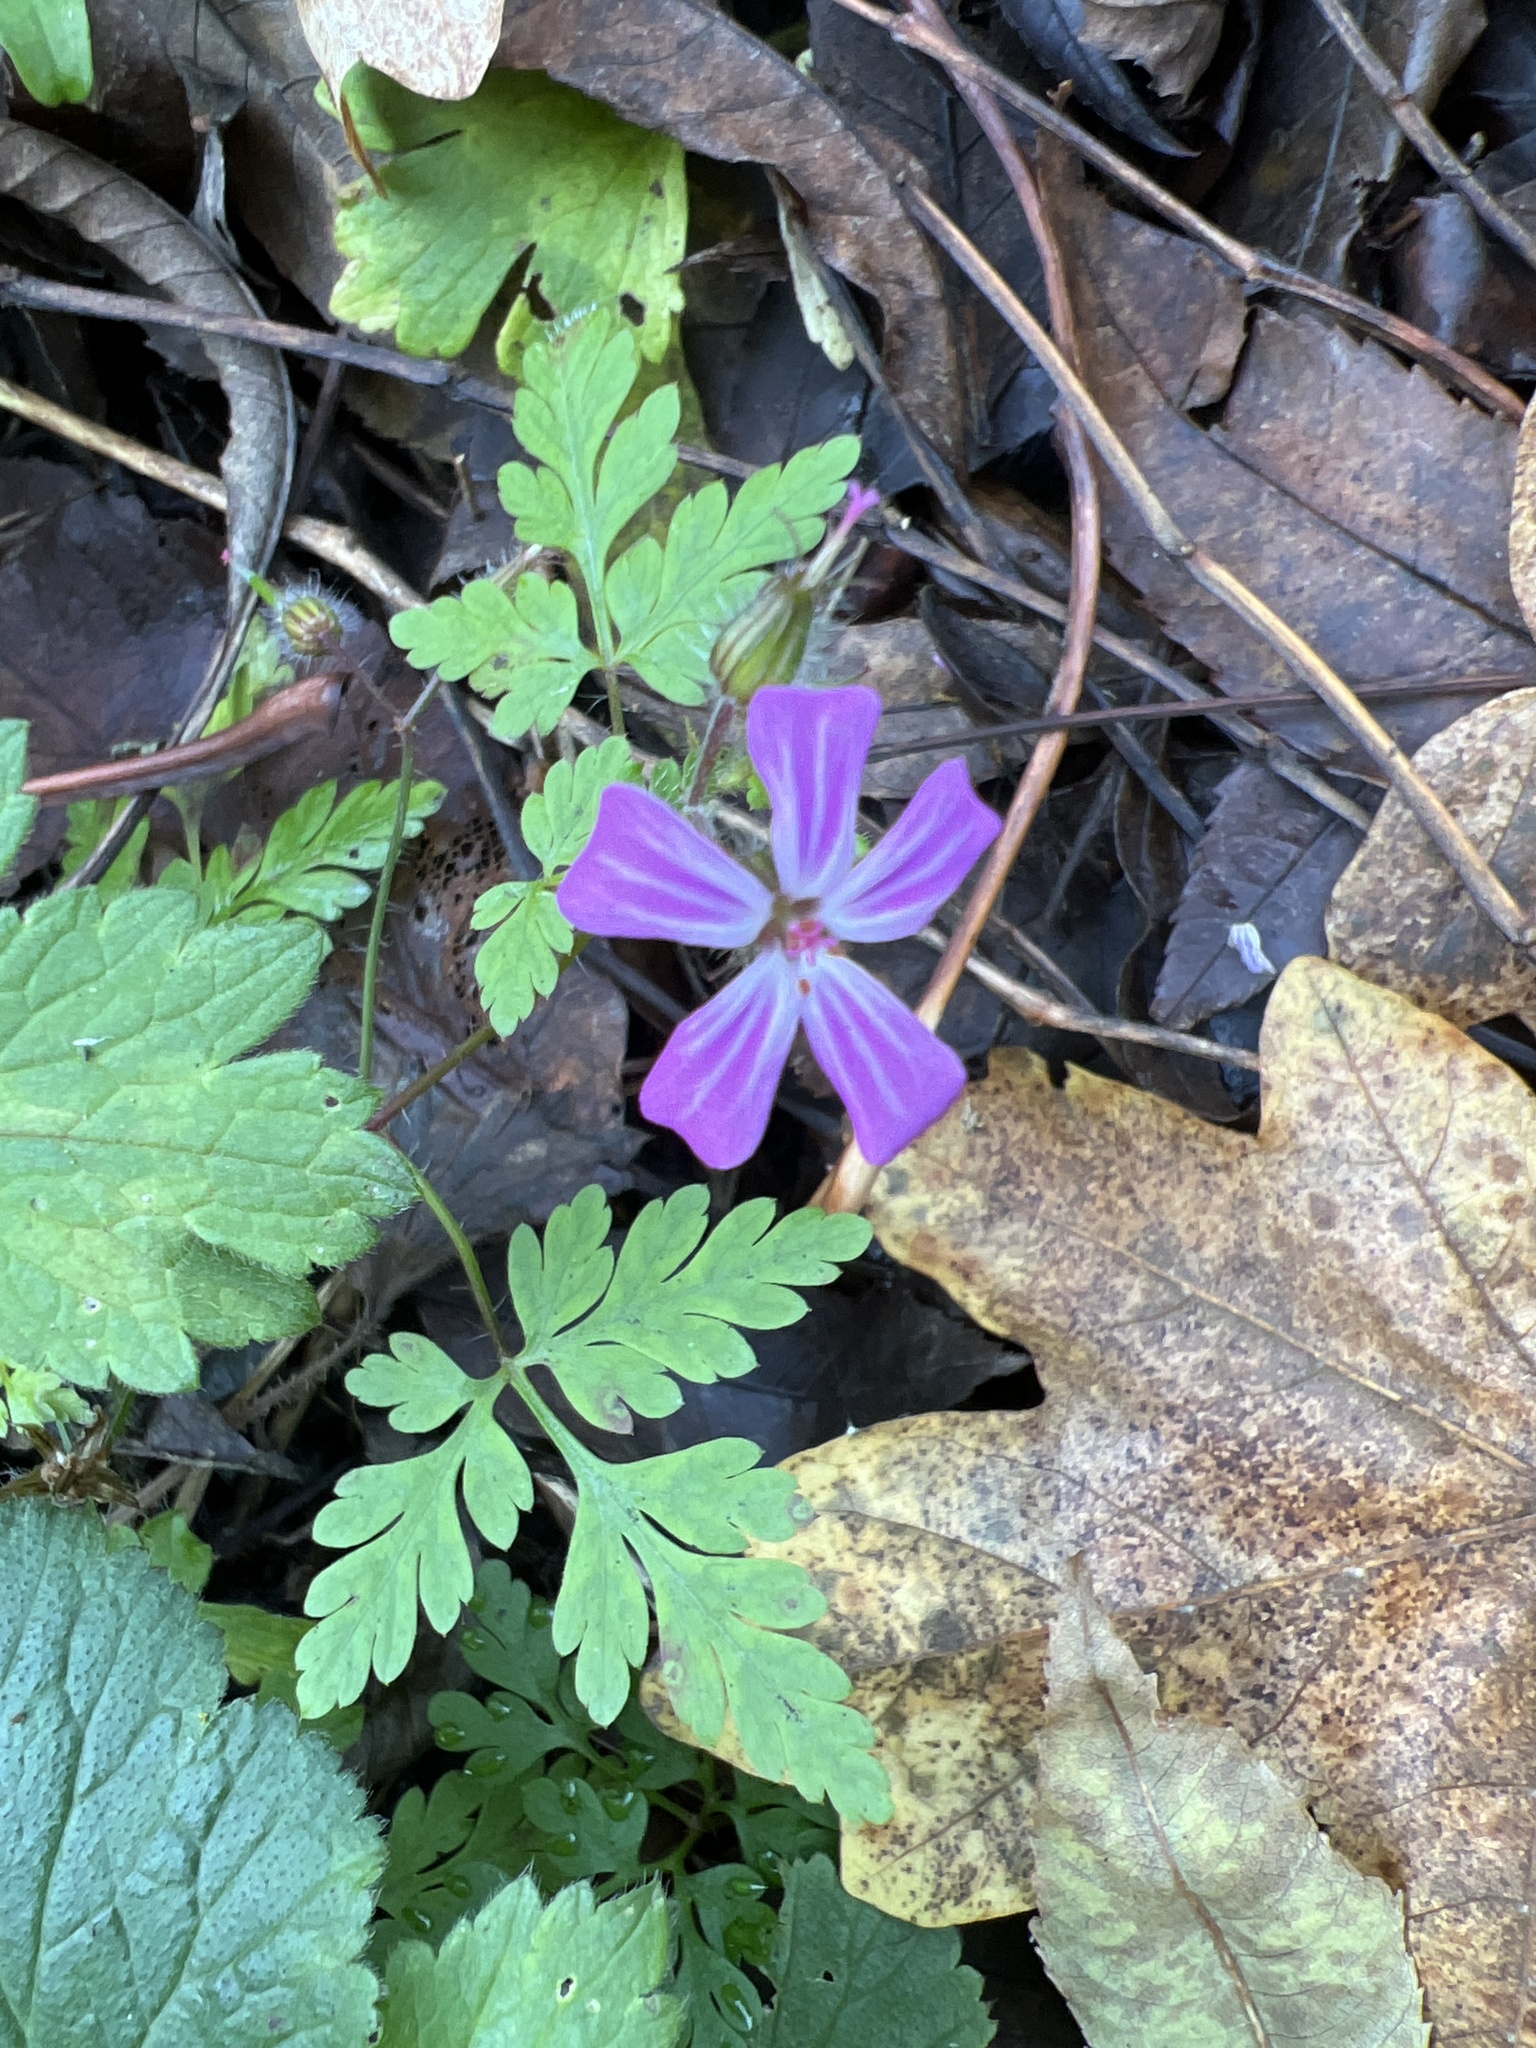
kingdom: Plantae
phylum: Tracheophyta
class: Magnoliopsida
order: Geraniales
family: Geraniaceae
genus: Geranium
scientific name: Geranium robertianum
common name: Herb-robert
